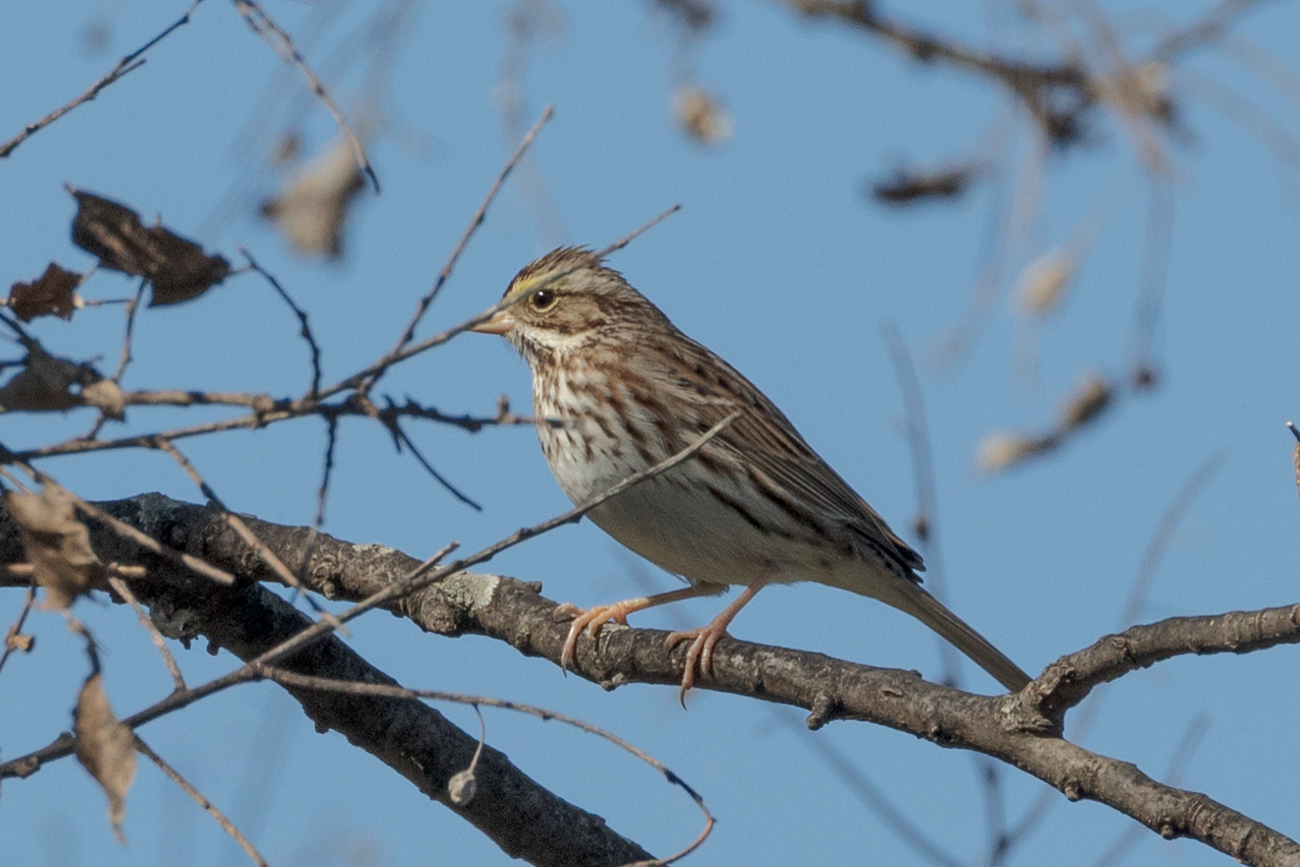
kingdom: Animalia
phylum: Chordata
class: Aves
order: Passeriformes
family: Passerellidae
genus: Passerculus
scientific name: Passerculus sandwichensis
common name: Savannah sparrow
